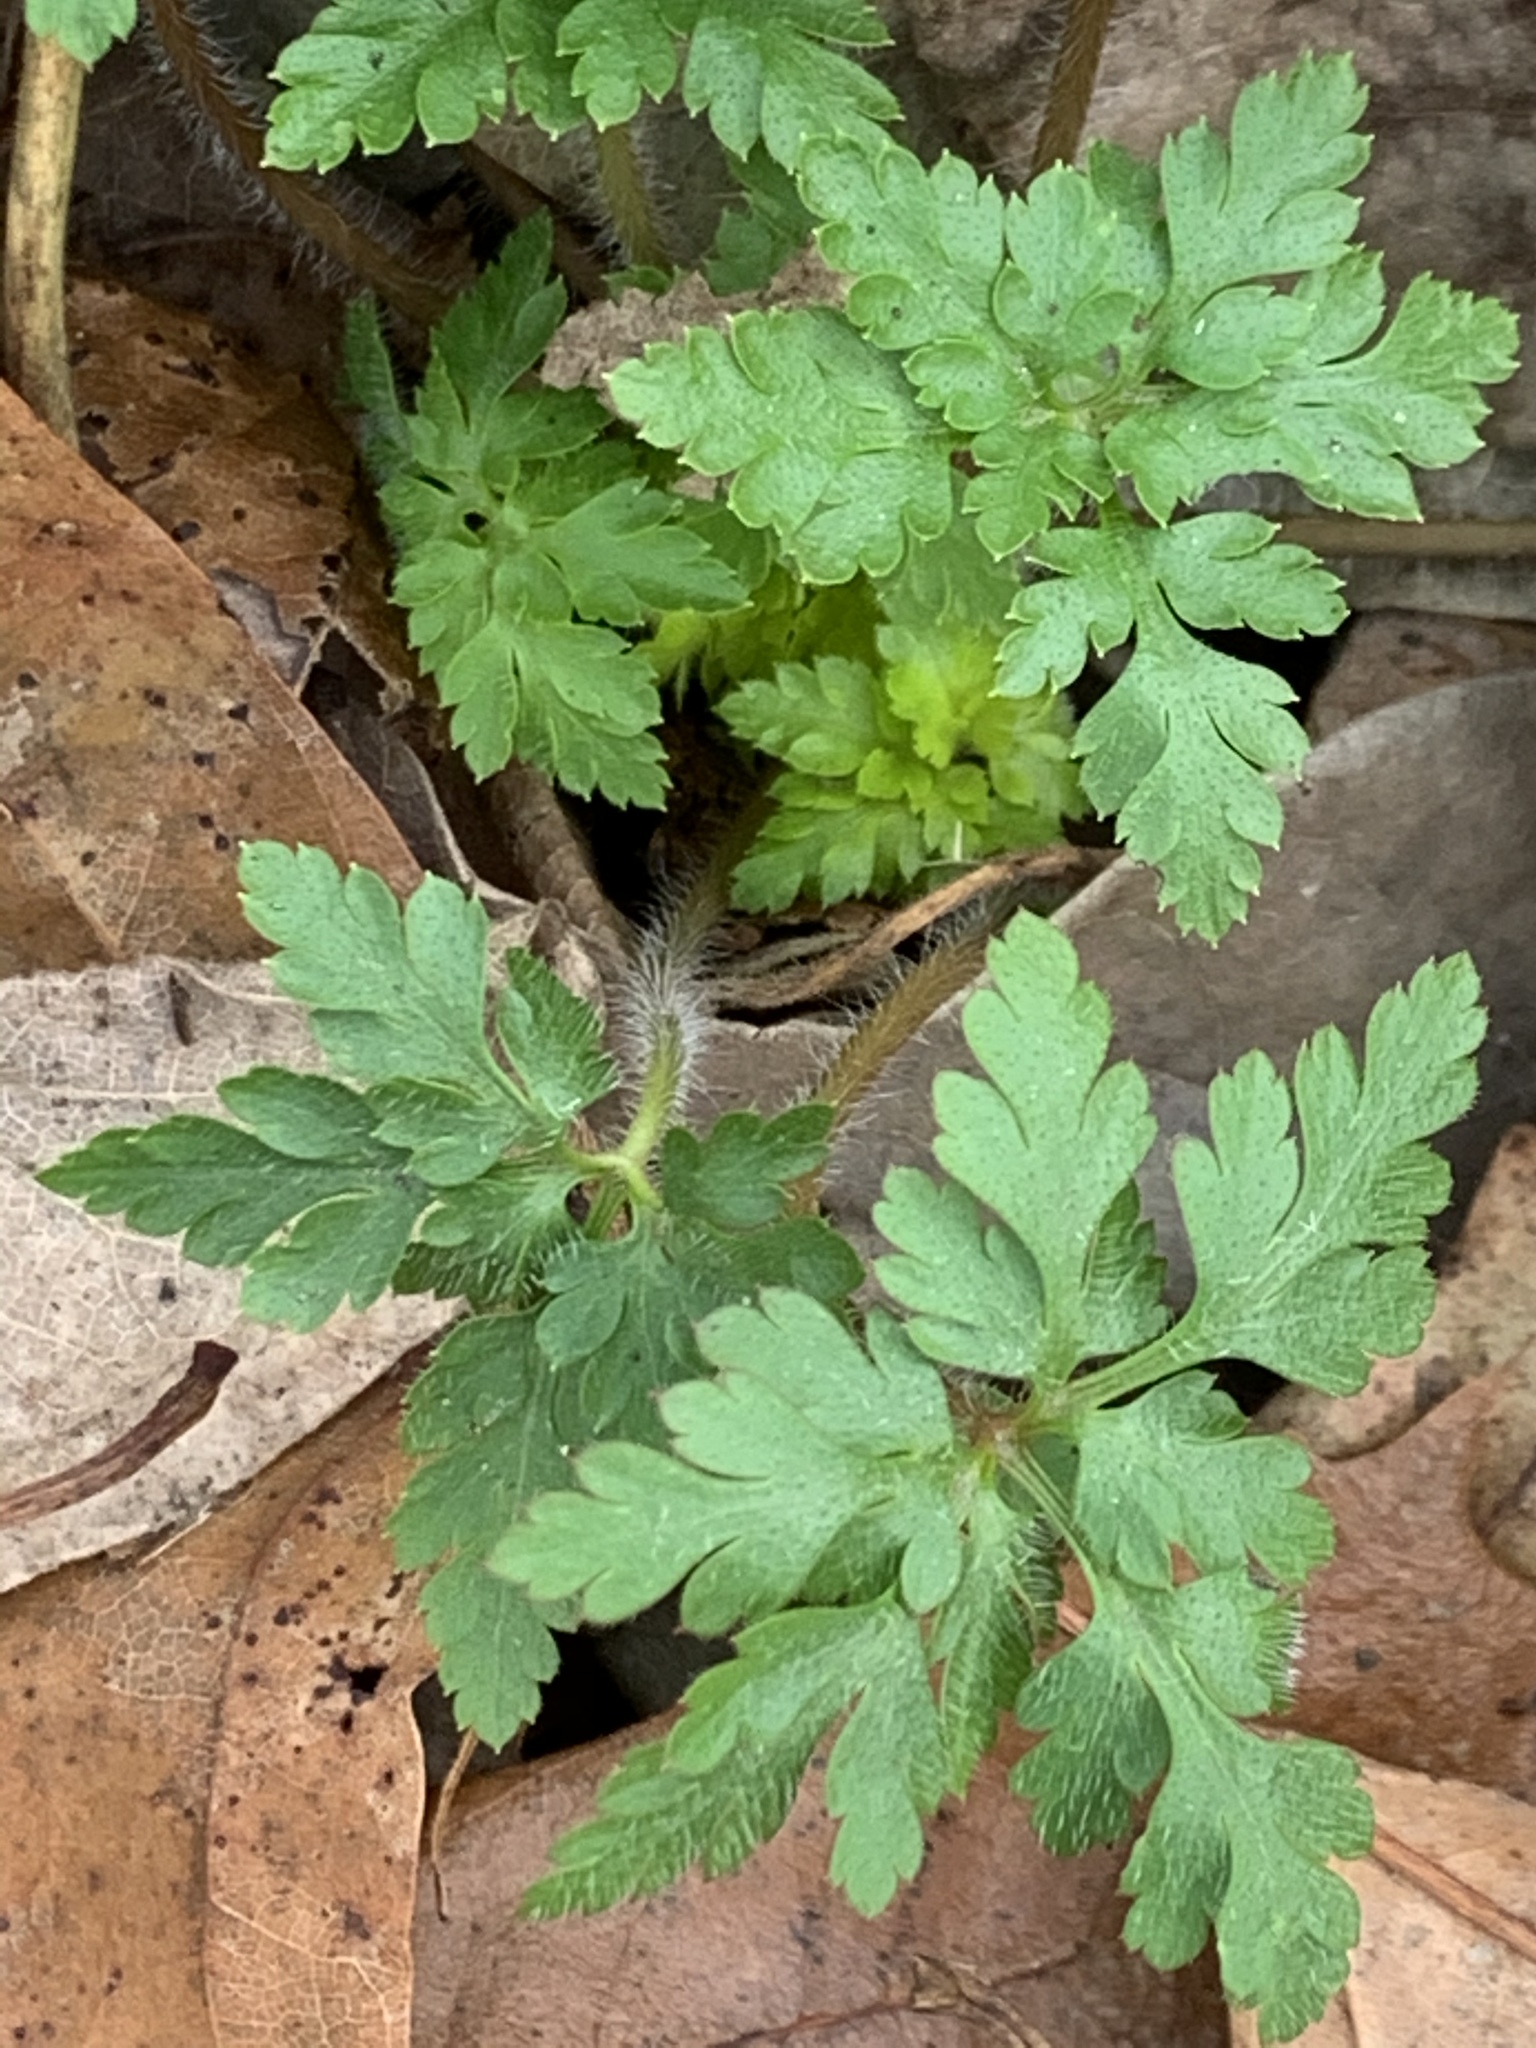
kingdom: Plantae
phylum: Tracheophyta
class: Magnoliopsida
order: Geraniales
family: Geraniaceae
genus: Geranium
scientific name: Geranium robertianum
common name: Herb-robert
